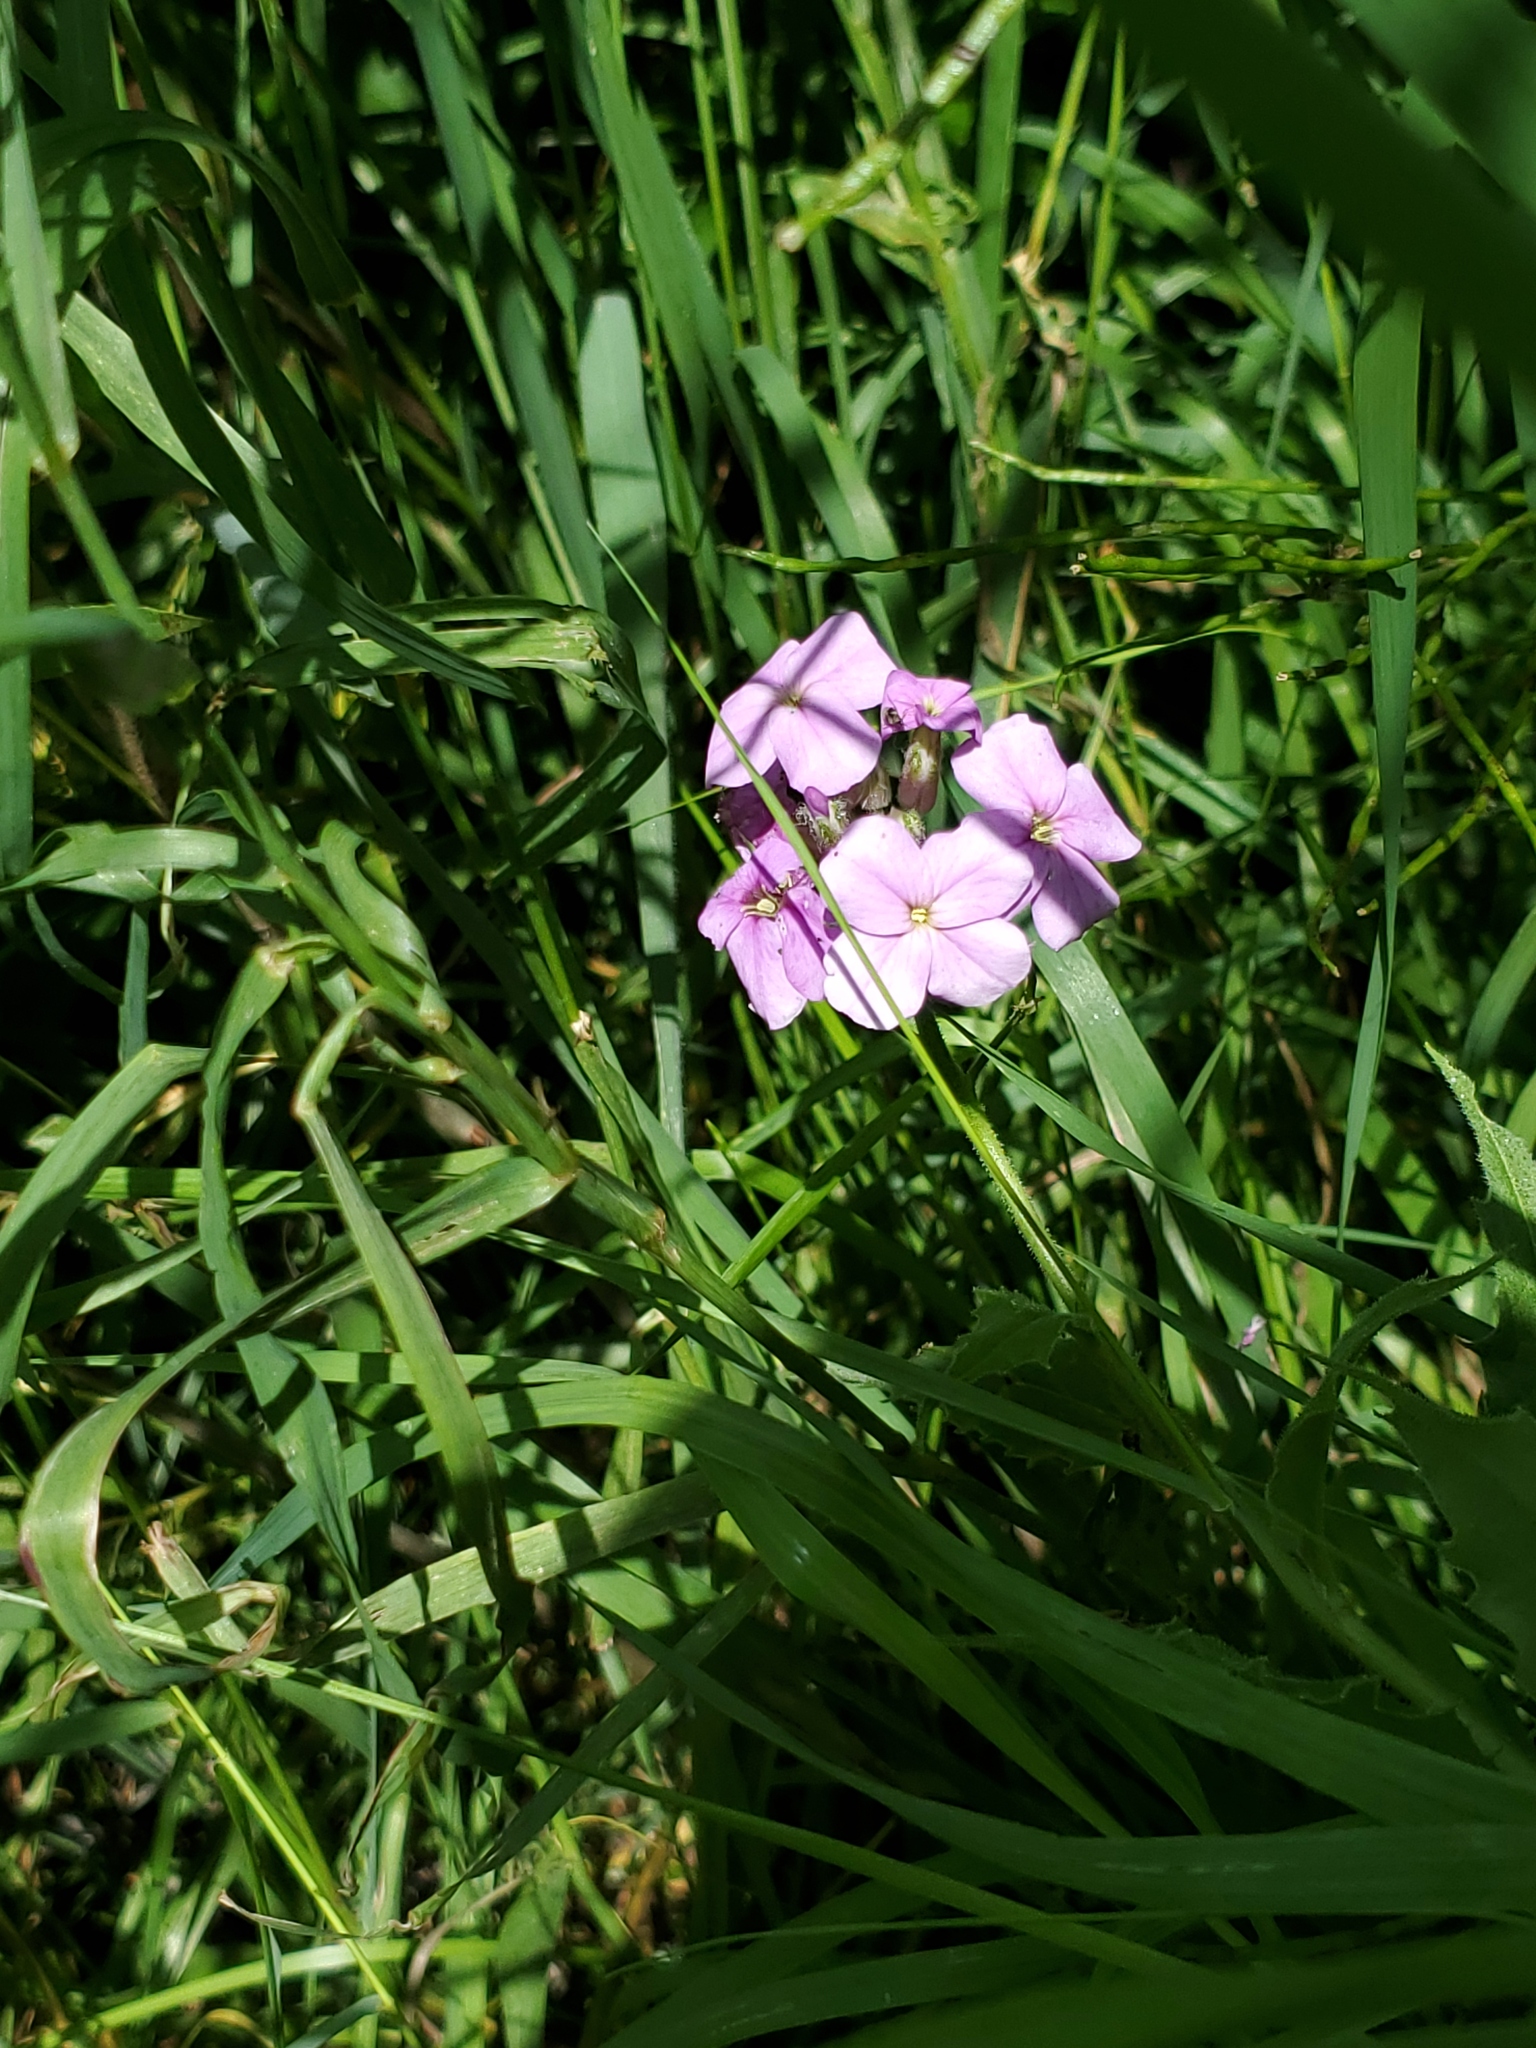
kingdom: Plantae
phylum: Tracheophyta
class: Magnoliopsida
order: Brassicales
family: Brassicaceae
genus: Hesperis
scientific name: Hesperis matronalis
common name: Dame's-violet
